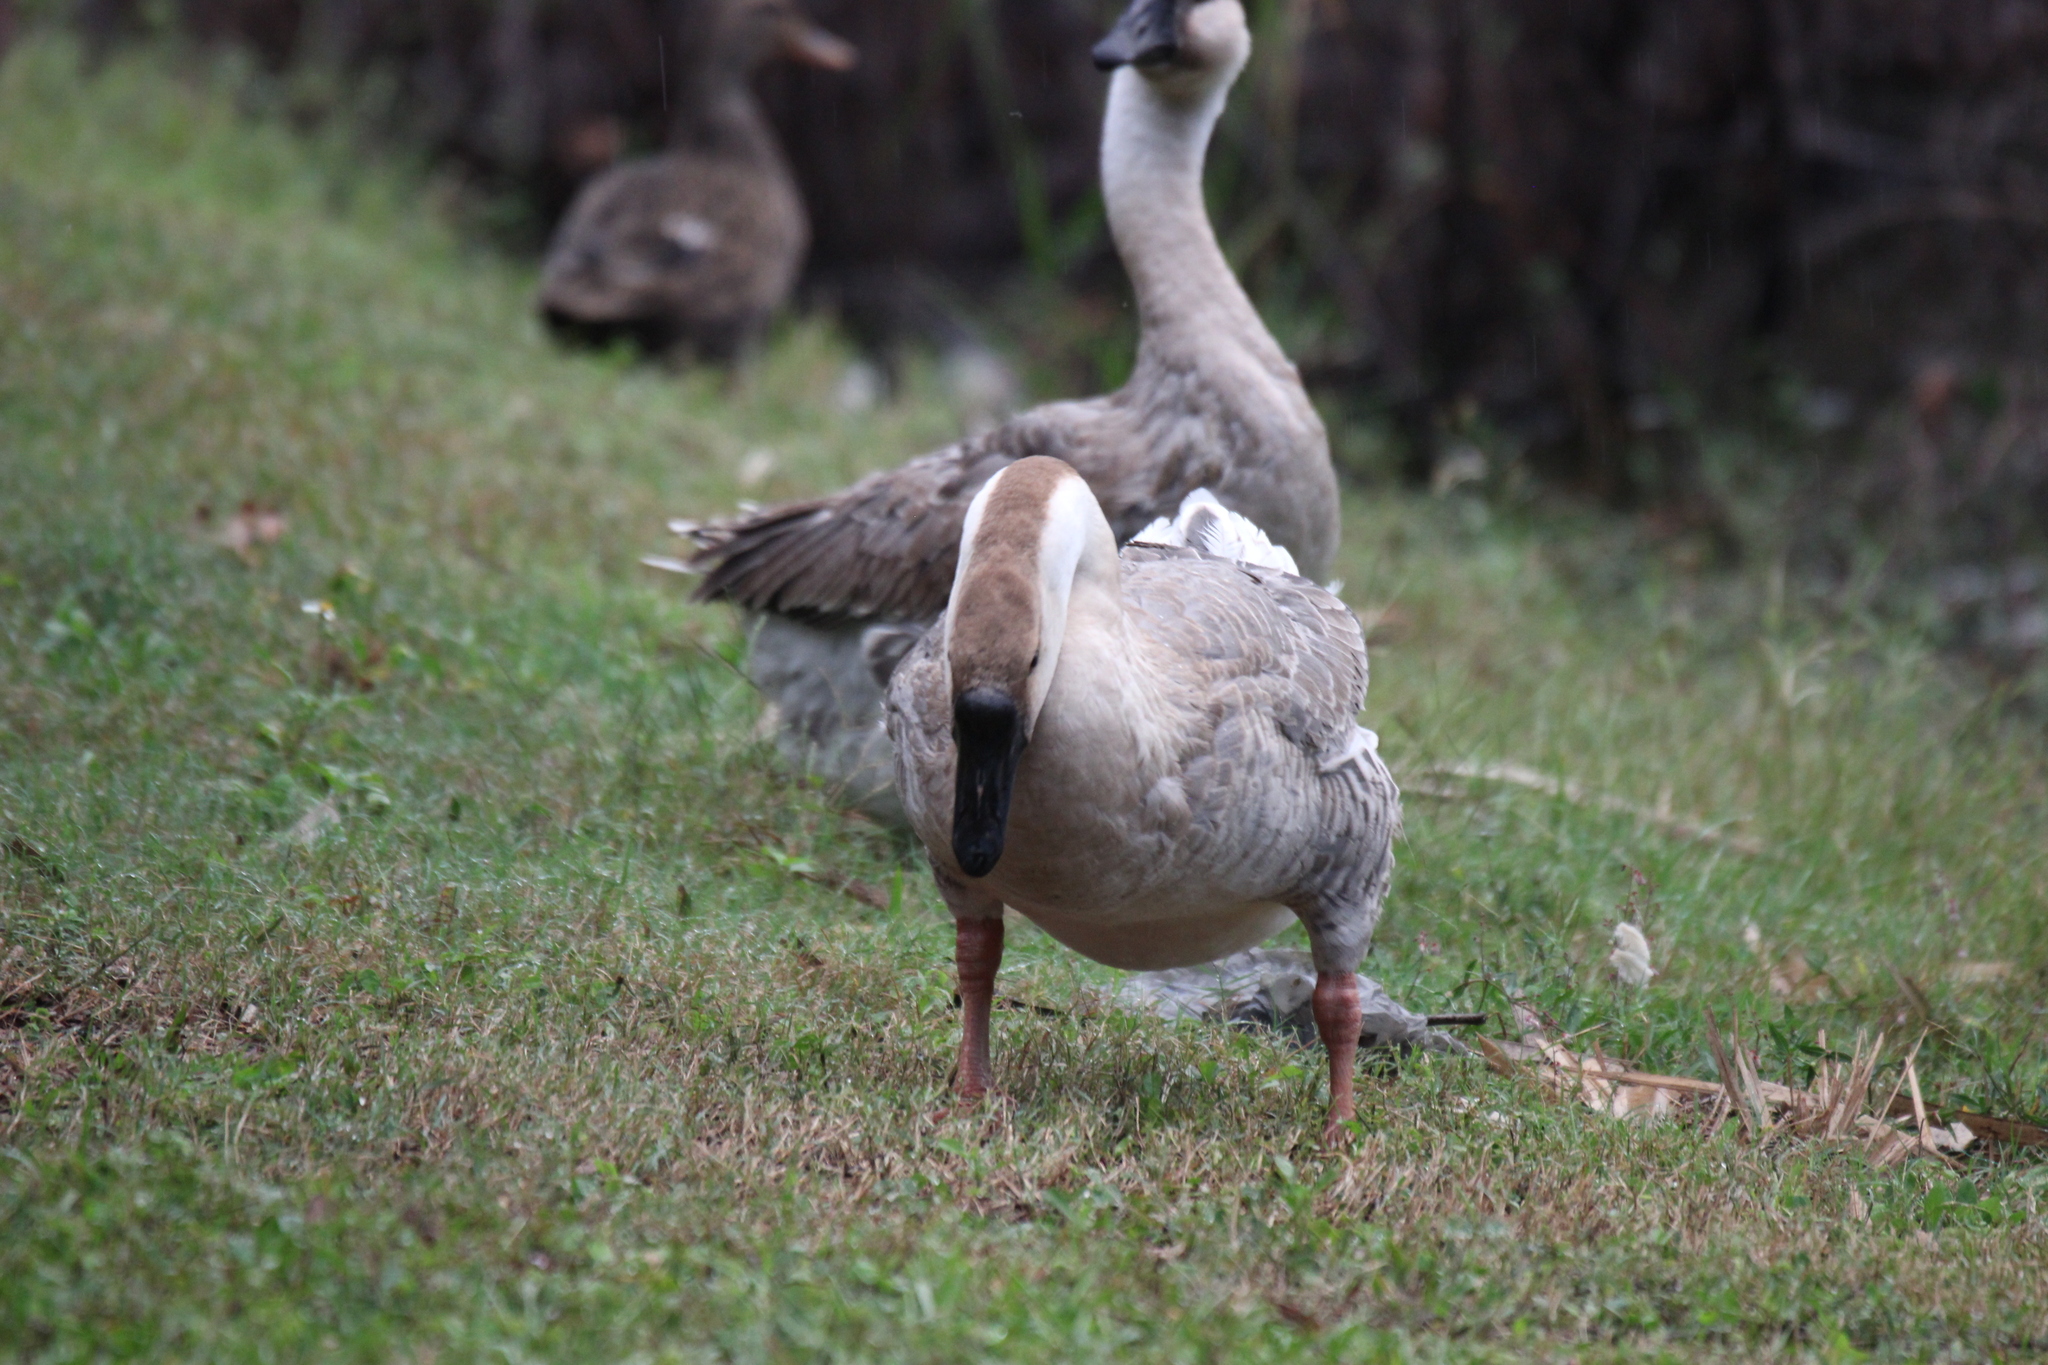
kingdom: Animalia
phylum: Chordata
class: Aves
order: Anseriformes
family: Anatidae
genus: Anser
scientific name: Anser cygnoides
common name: Swan goose
